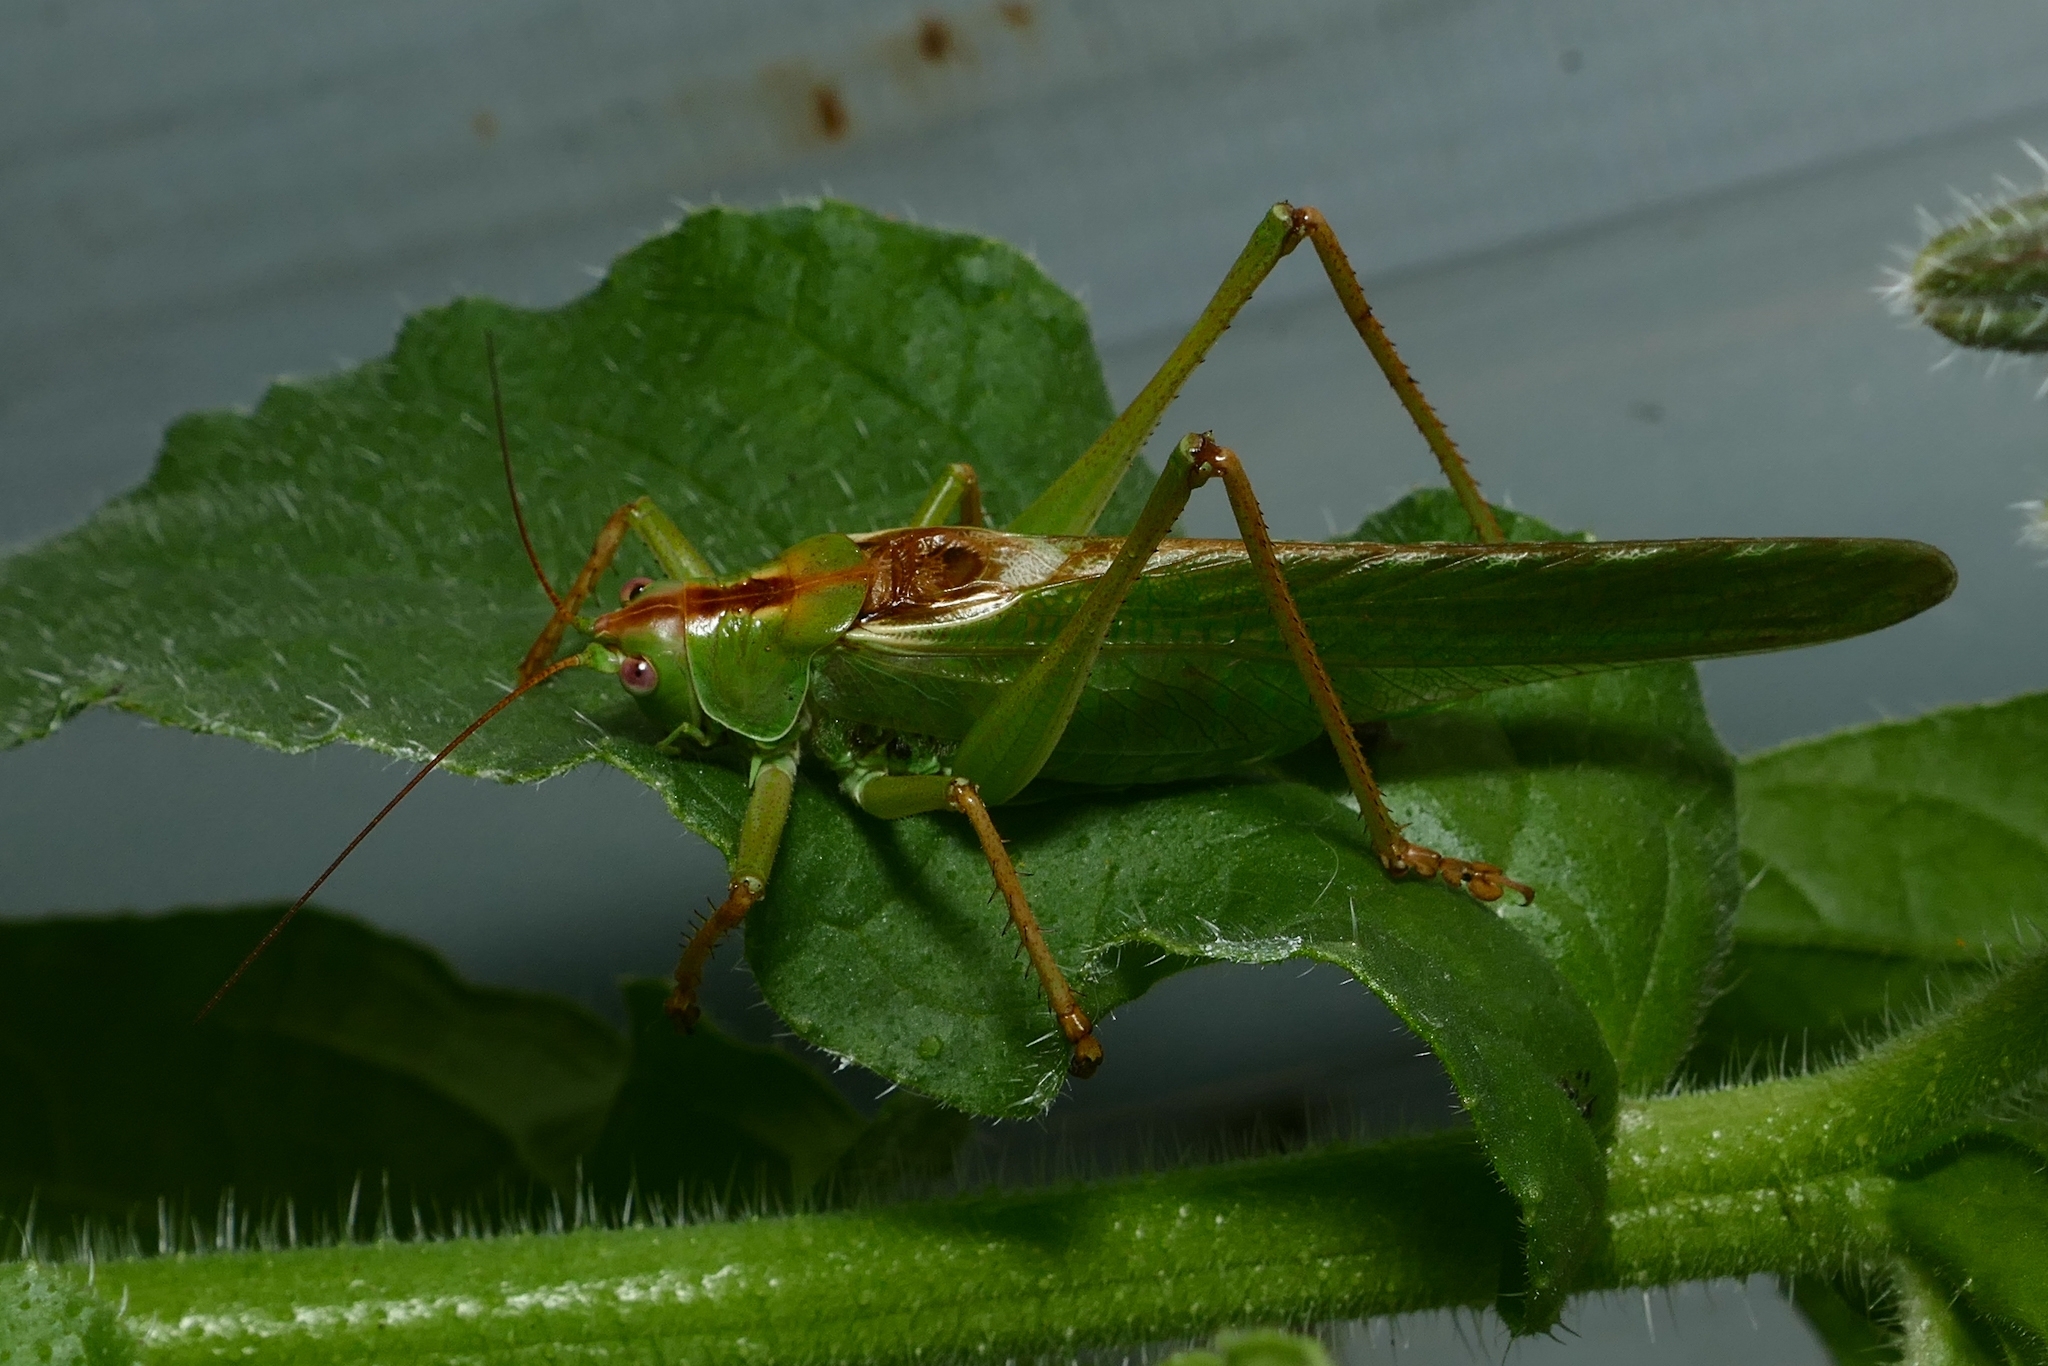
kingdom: Animalia
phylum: Arthropoda
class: Insecta
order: Orthoptera
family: Tettigoniidae
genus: Tettigonia
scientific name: Tettigonia viridissima
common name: Great green bush-cricket
